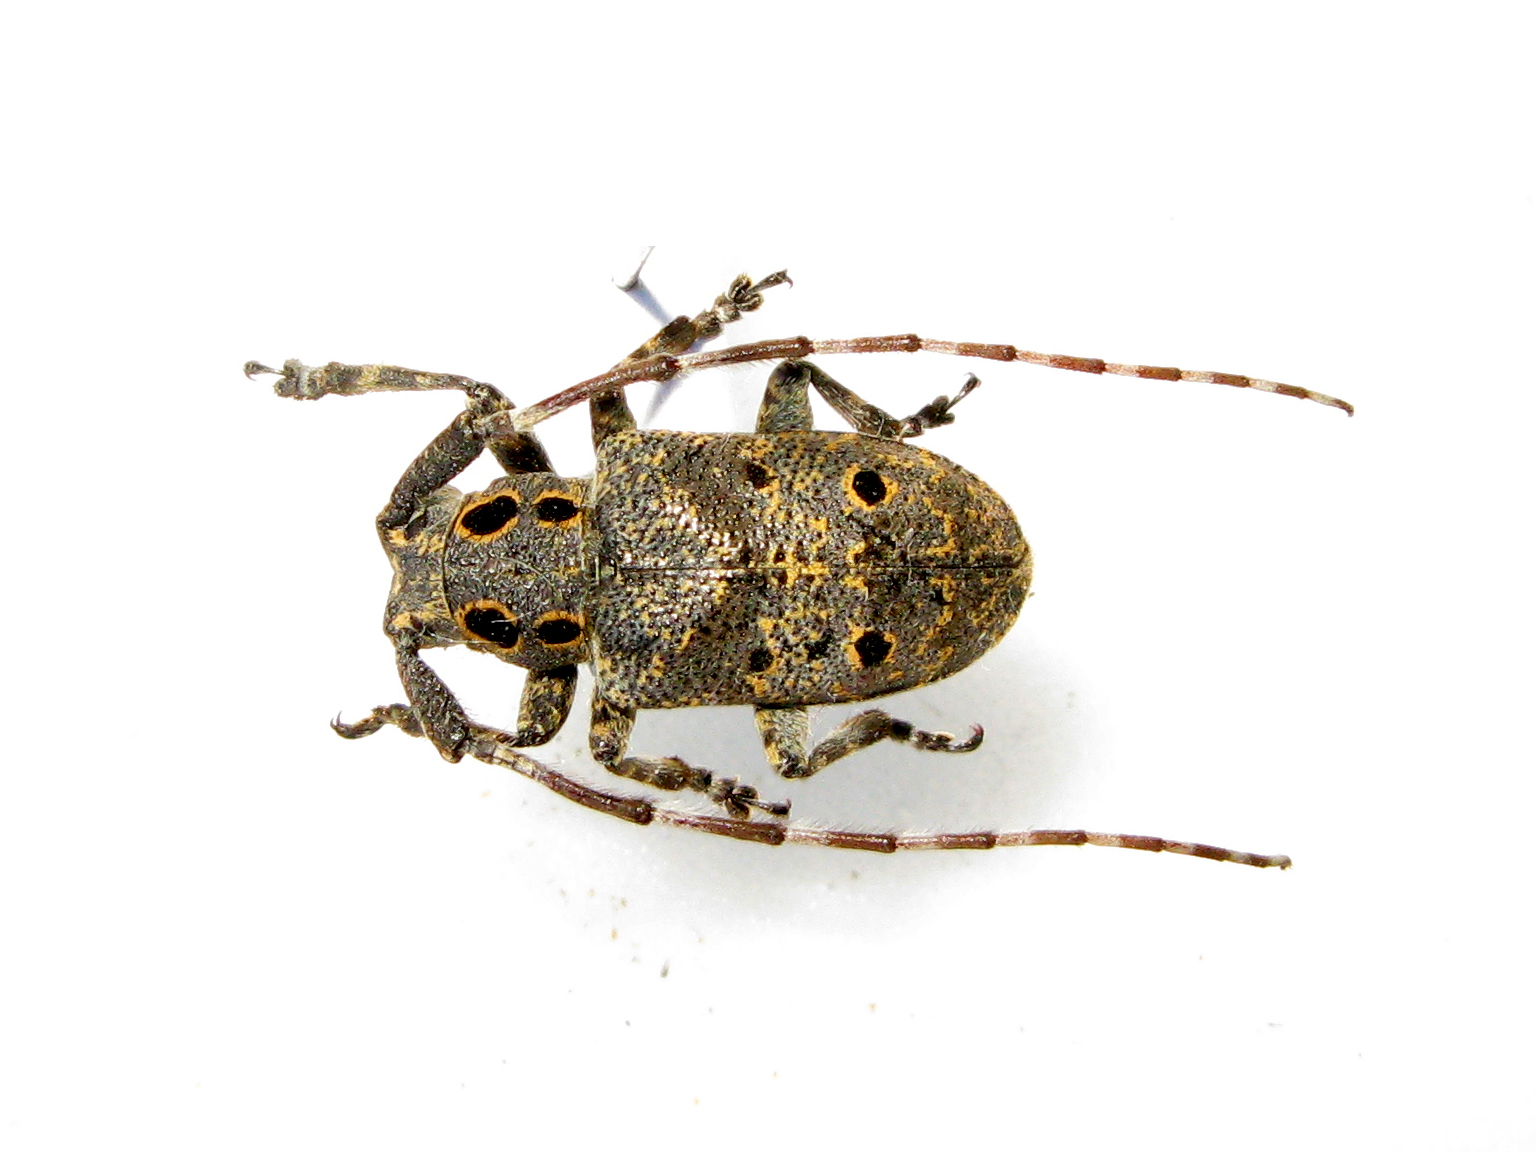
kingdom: Animalia
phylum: Arthropoda
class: Insecta
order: Coleoptera
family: Cerambycidae
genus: Mesosa
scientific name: Mesosa curculionoides
